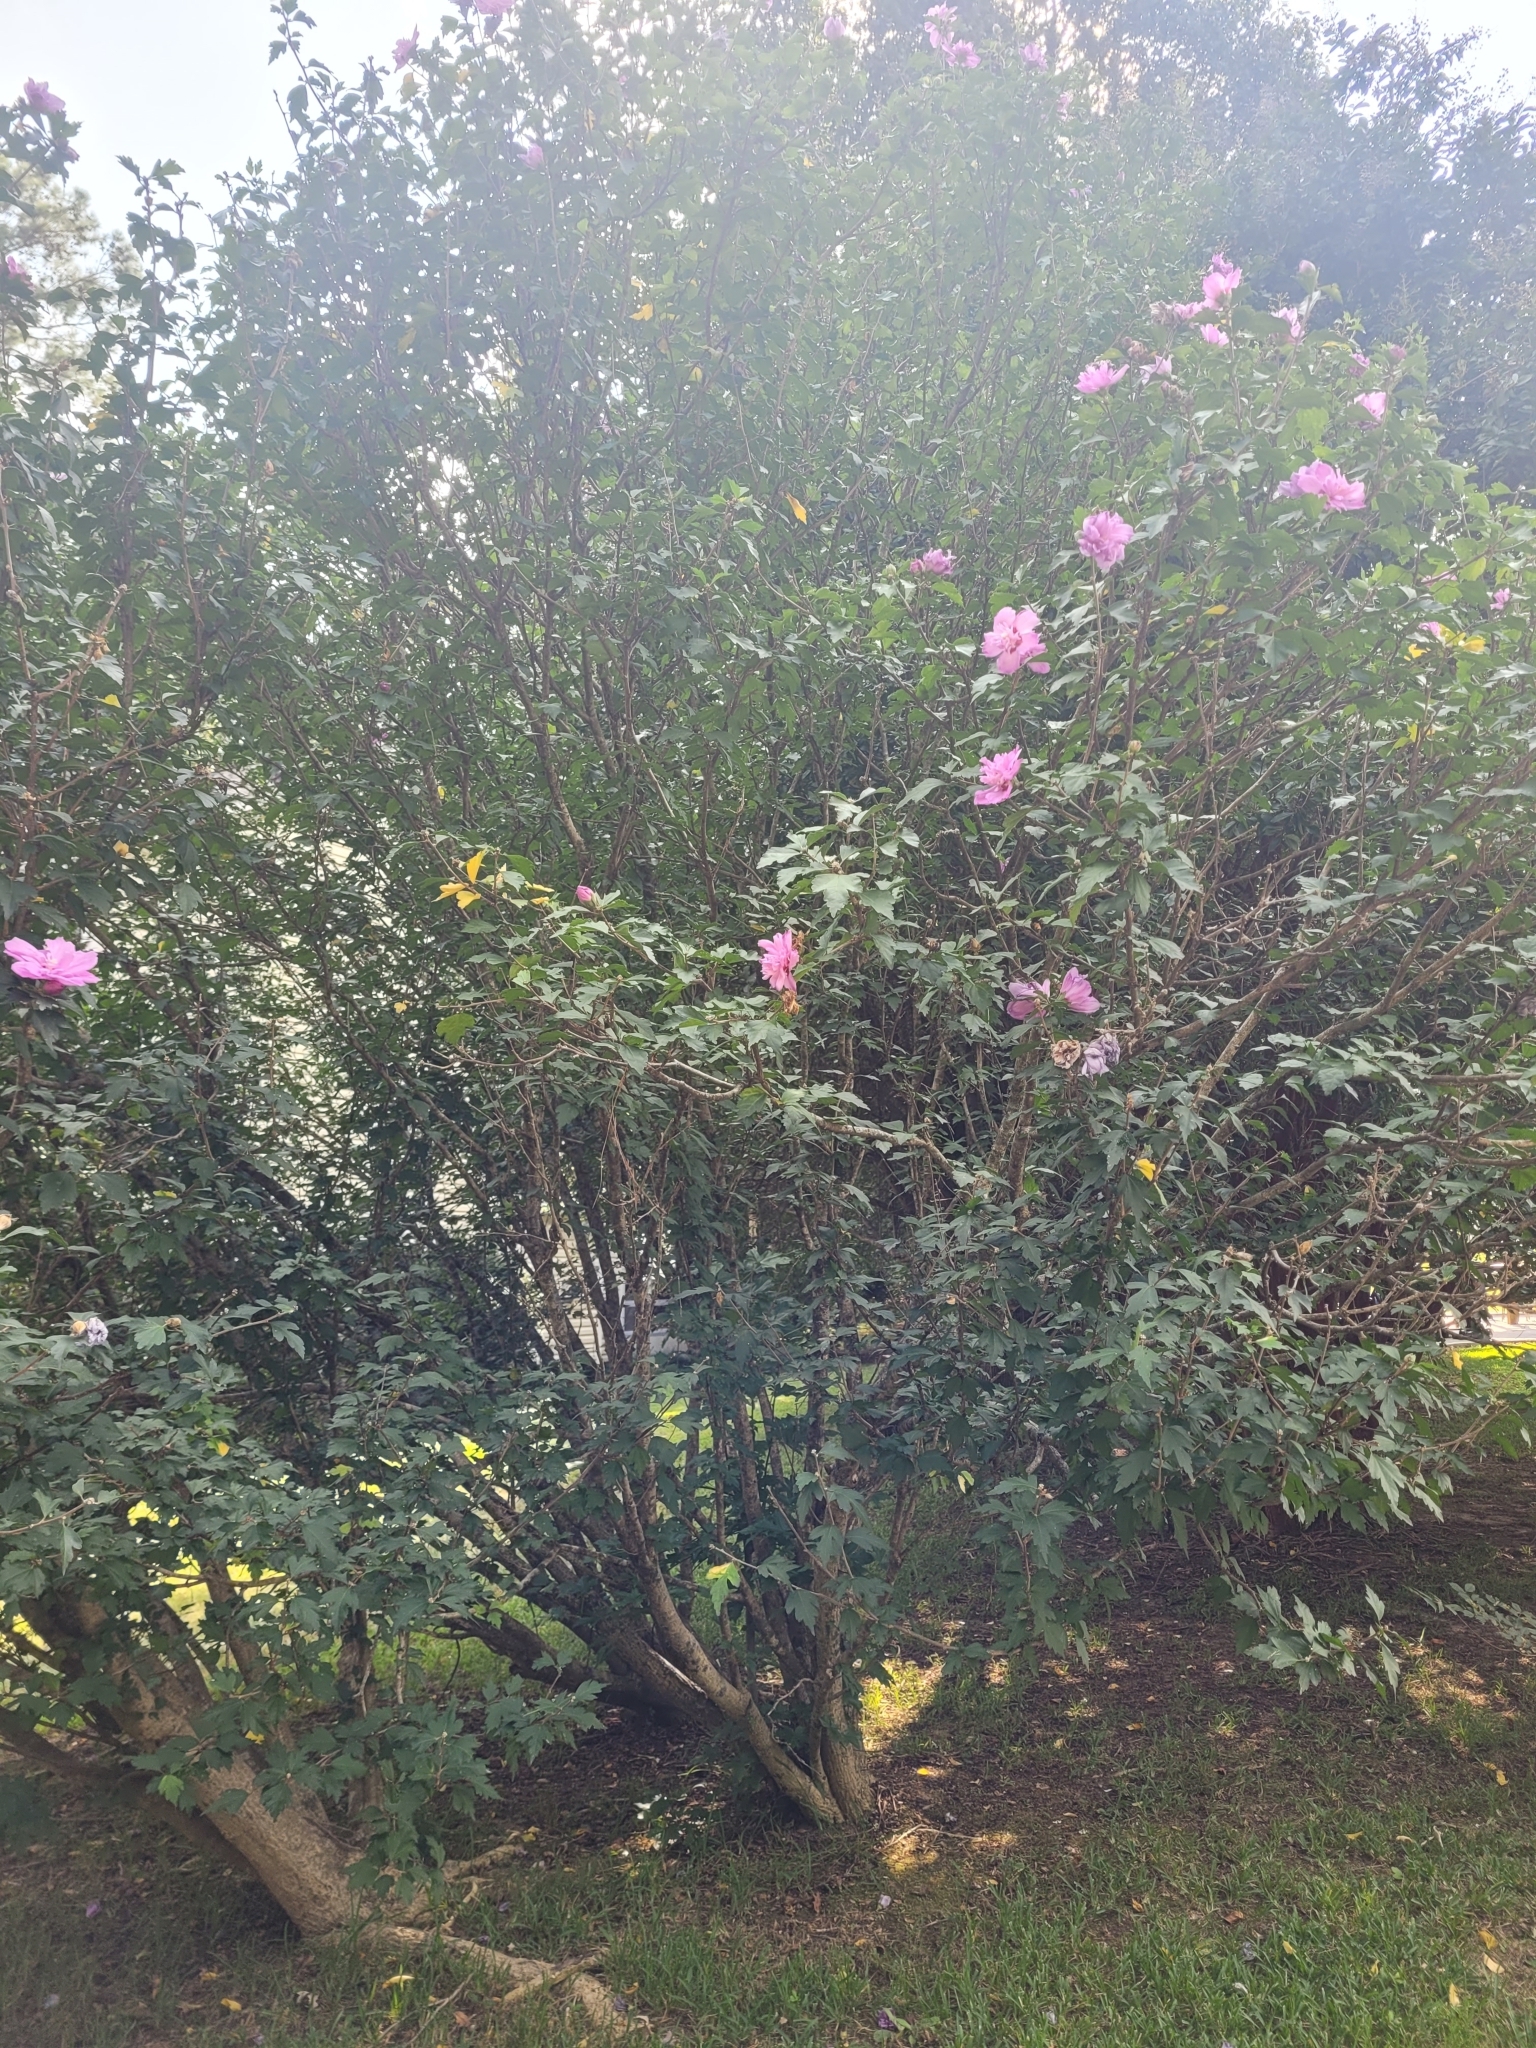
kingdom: Plantae
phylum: Tracheophyta
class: Magnoliopsida
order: Malvales
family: Malvaceae
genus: Hibiscus
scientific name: Hibiscus syriacus
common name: Syrian ketmia
